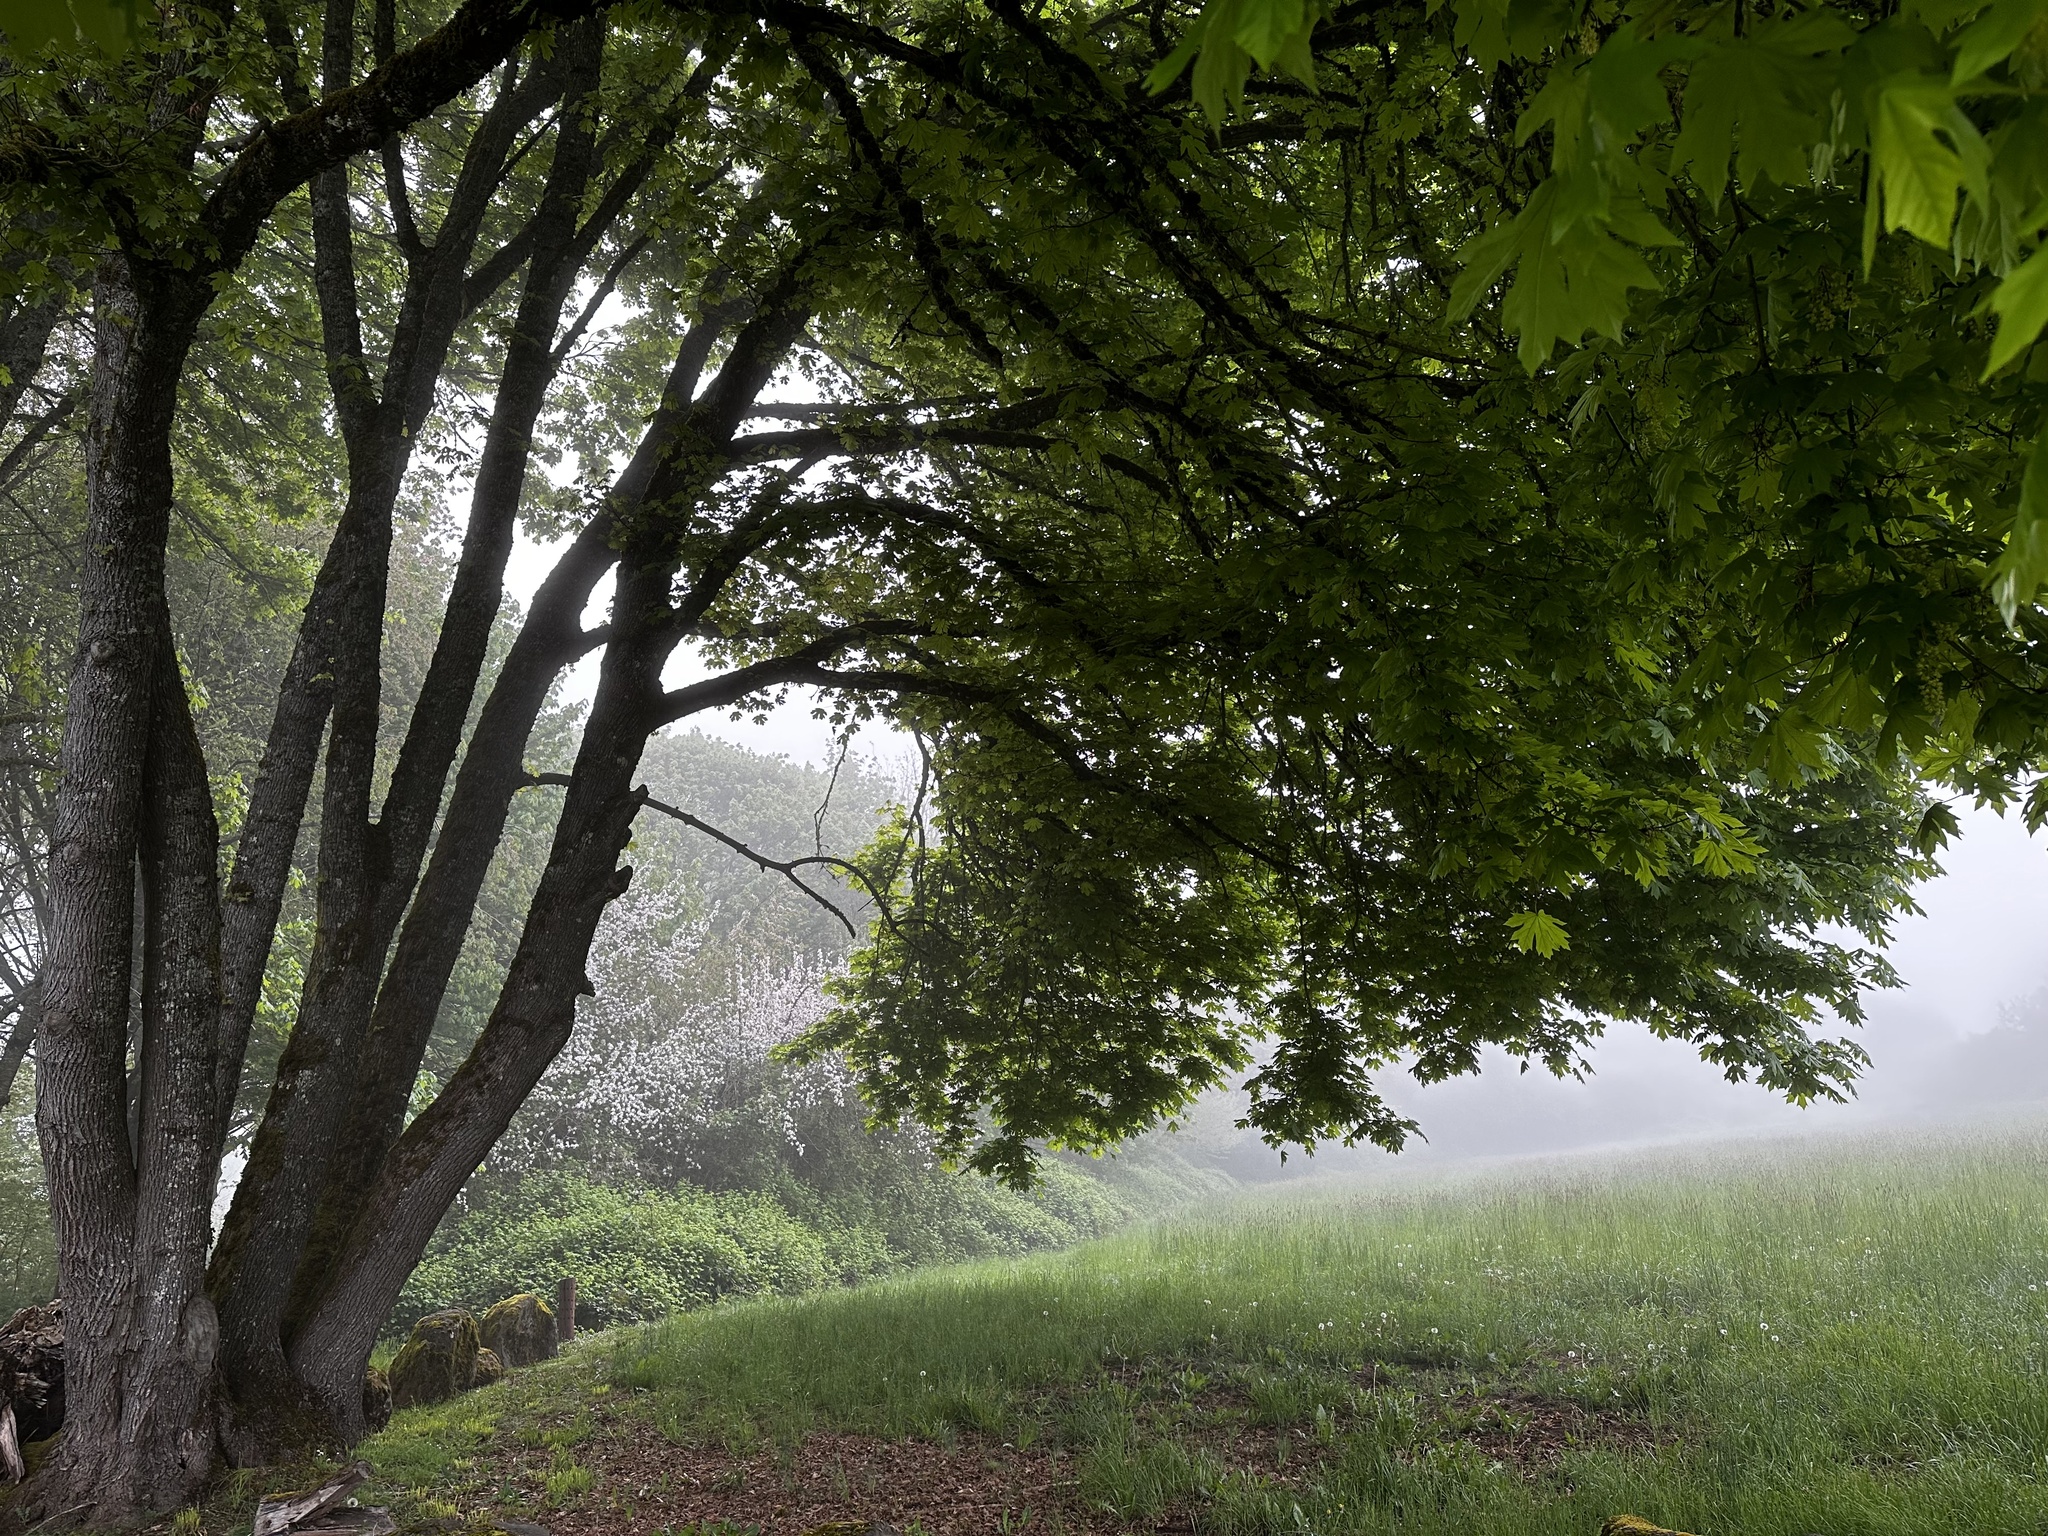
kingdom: Plantae
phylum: Tracheophyta
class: Magnoliopsida
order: Sapindales
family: Sapindaceae
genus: Acer
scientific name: Acer macrophyllum
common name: Oregon maple
